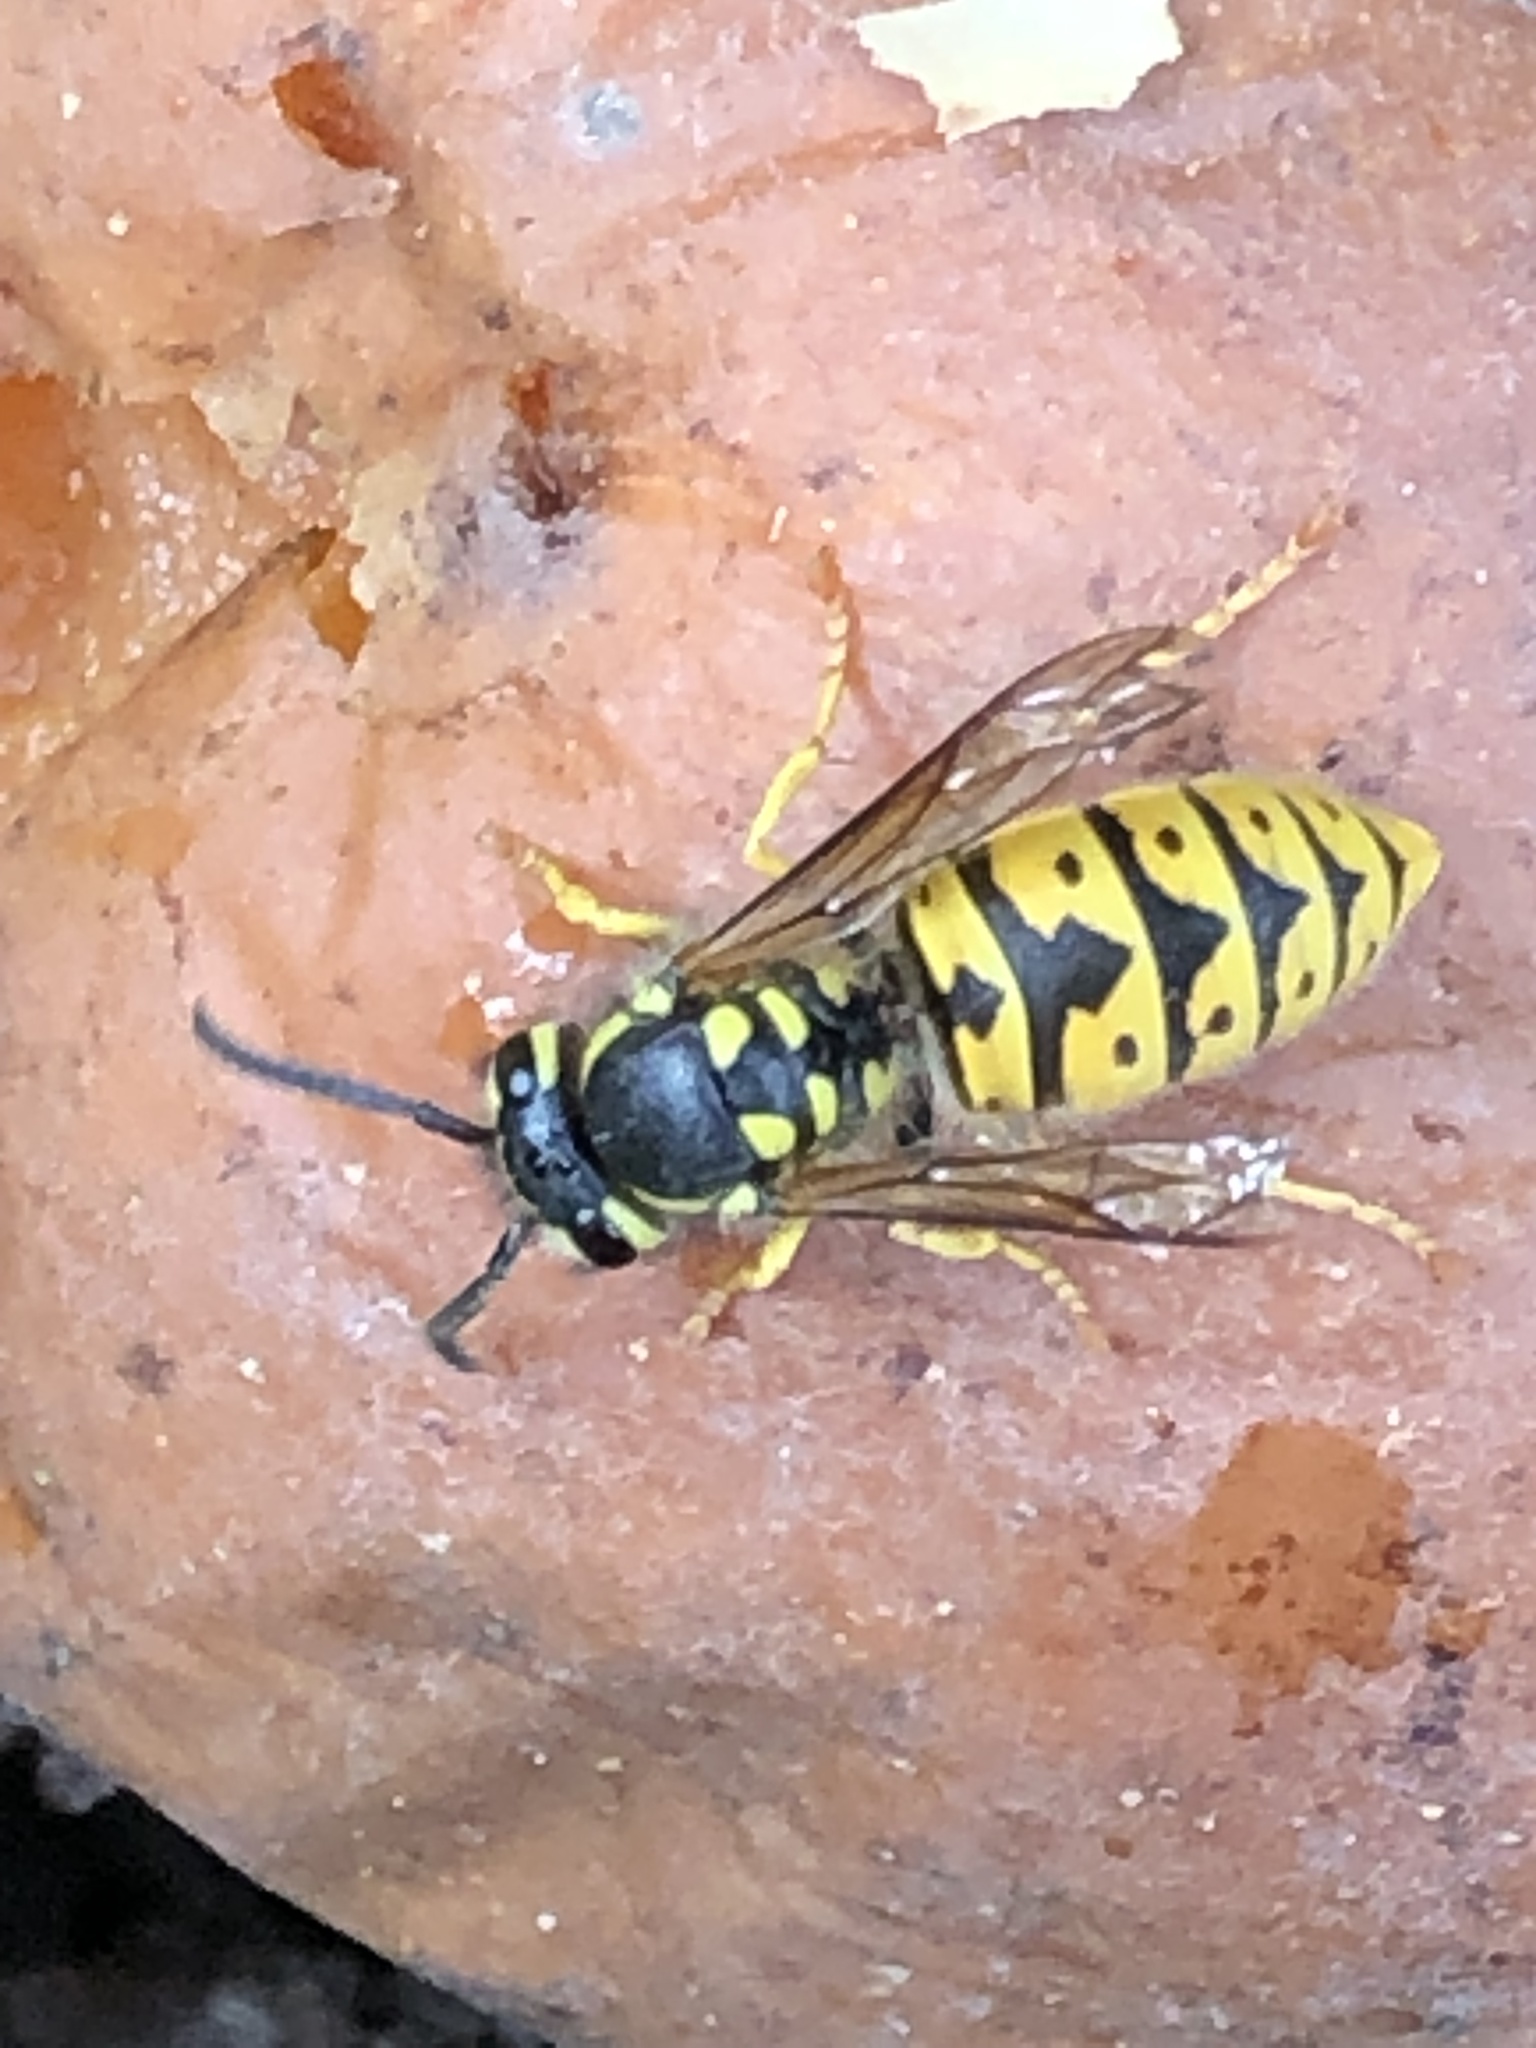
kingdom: Animalia
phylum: Arthropoda
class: Insecta
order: Hymenoptera
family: Vespidae
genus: Vespula
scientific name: Vespula germanica
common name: German wasp
